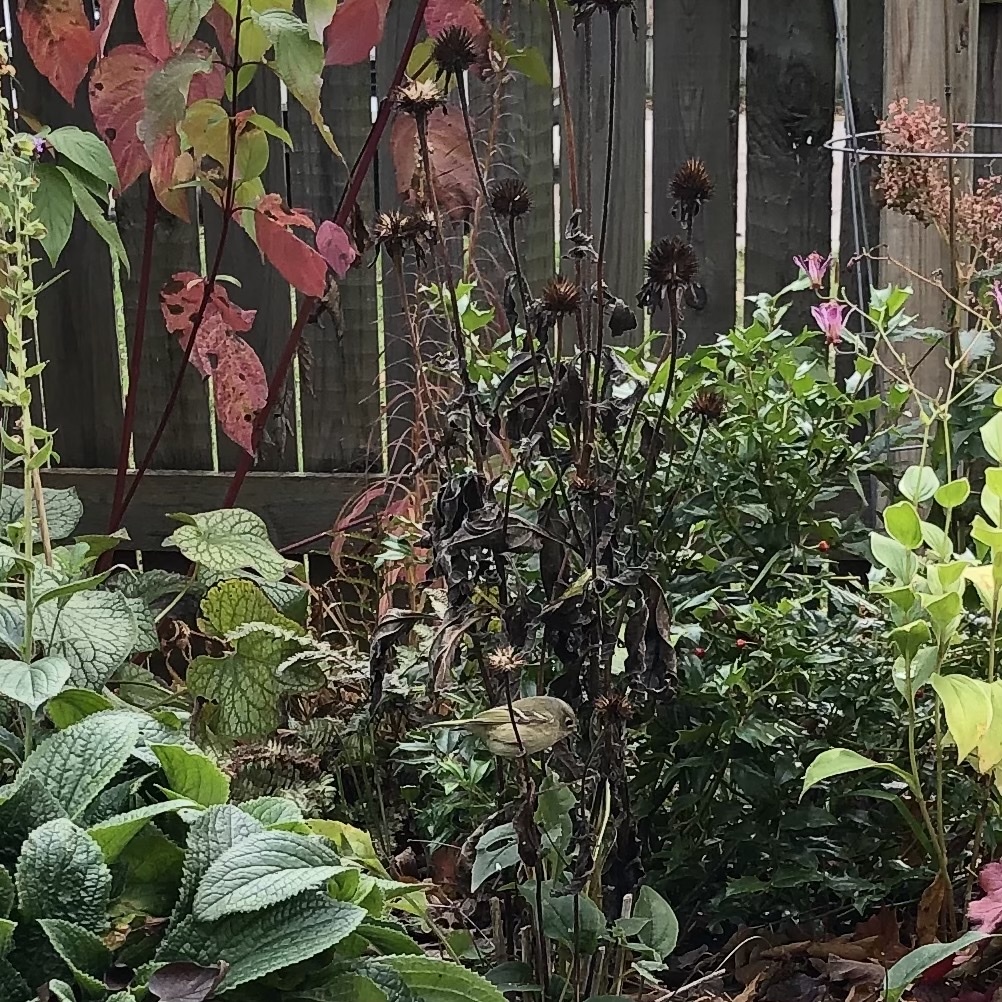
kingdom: Animalia
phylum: Chordata
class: Aves
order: Passeriformes
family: Regulidae
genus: Regulus
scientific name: Regulus calendula
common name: Ruby-crowned kinglet
